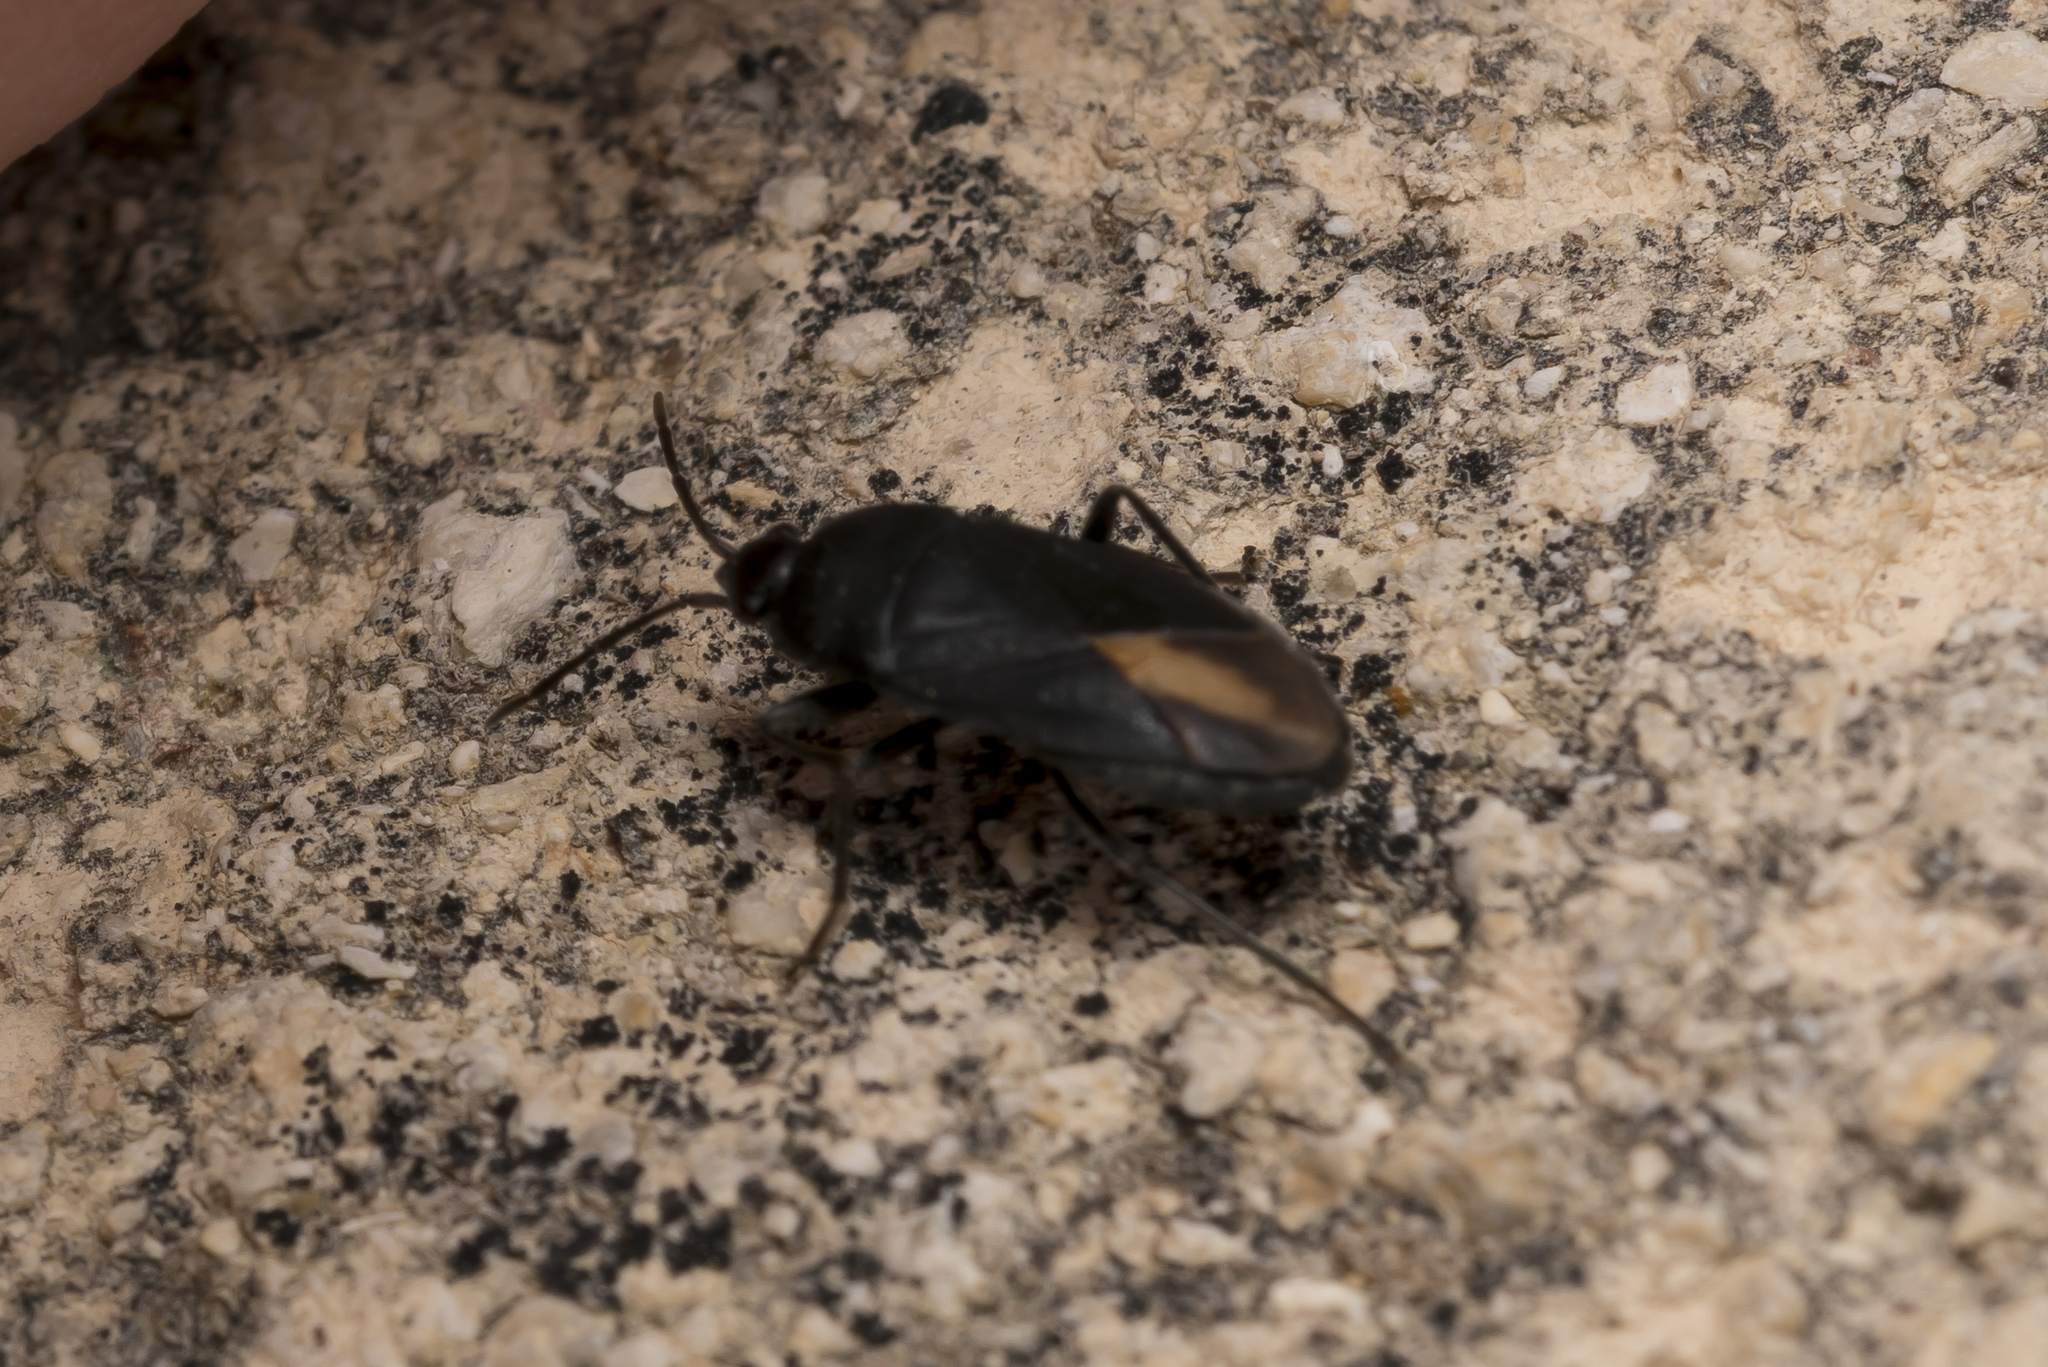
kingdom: Animalia
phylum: Arthropoda
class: Insecta
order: Hemiptera
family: Rhyparochromidae
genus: Aphanus
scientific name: Aphanus rolandri
